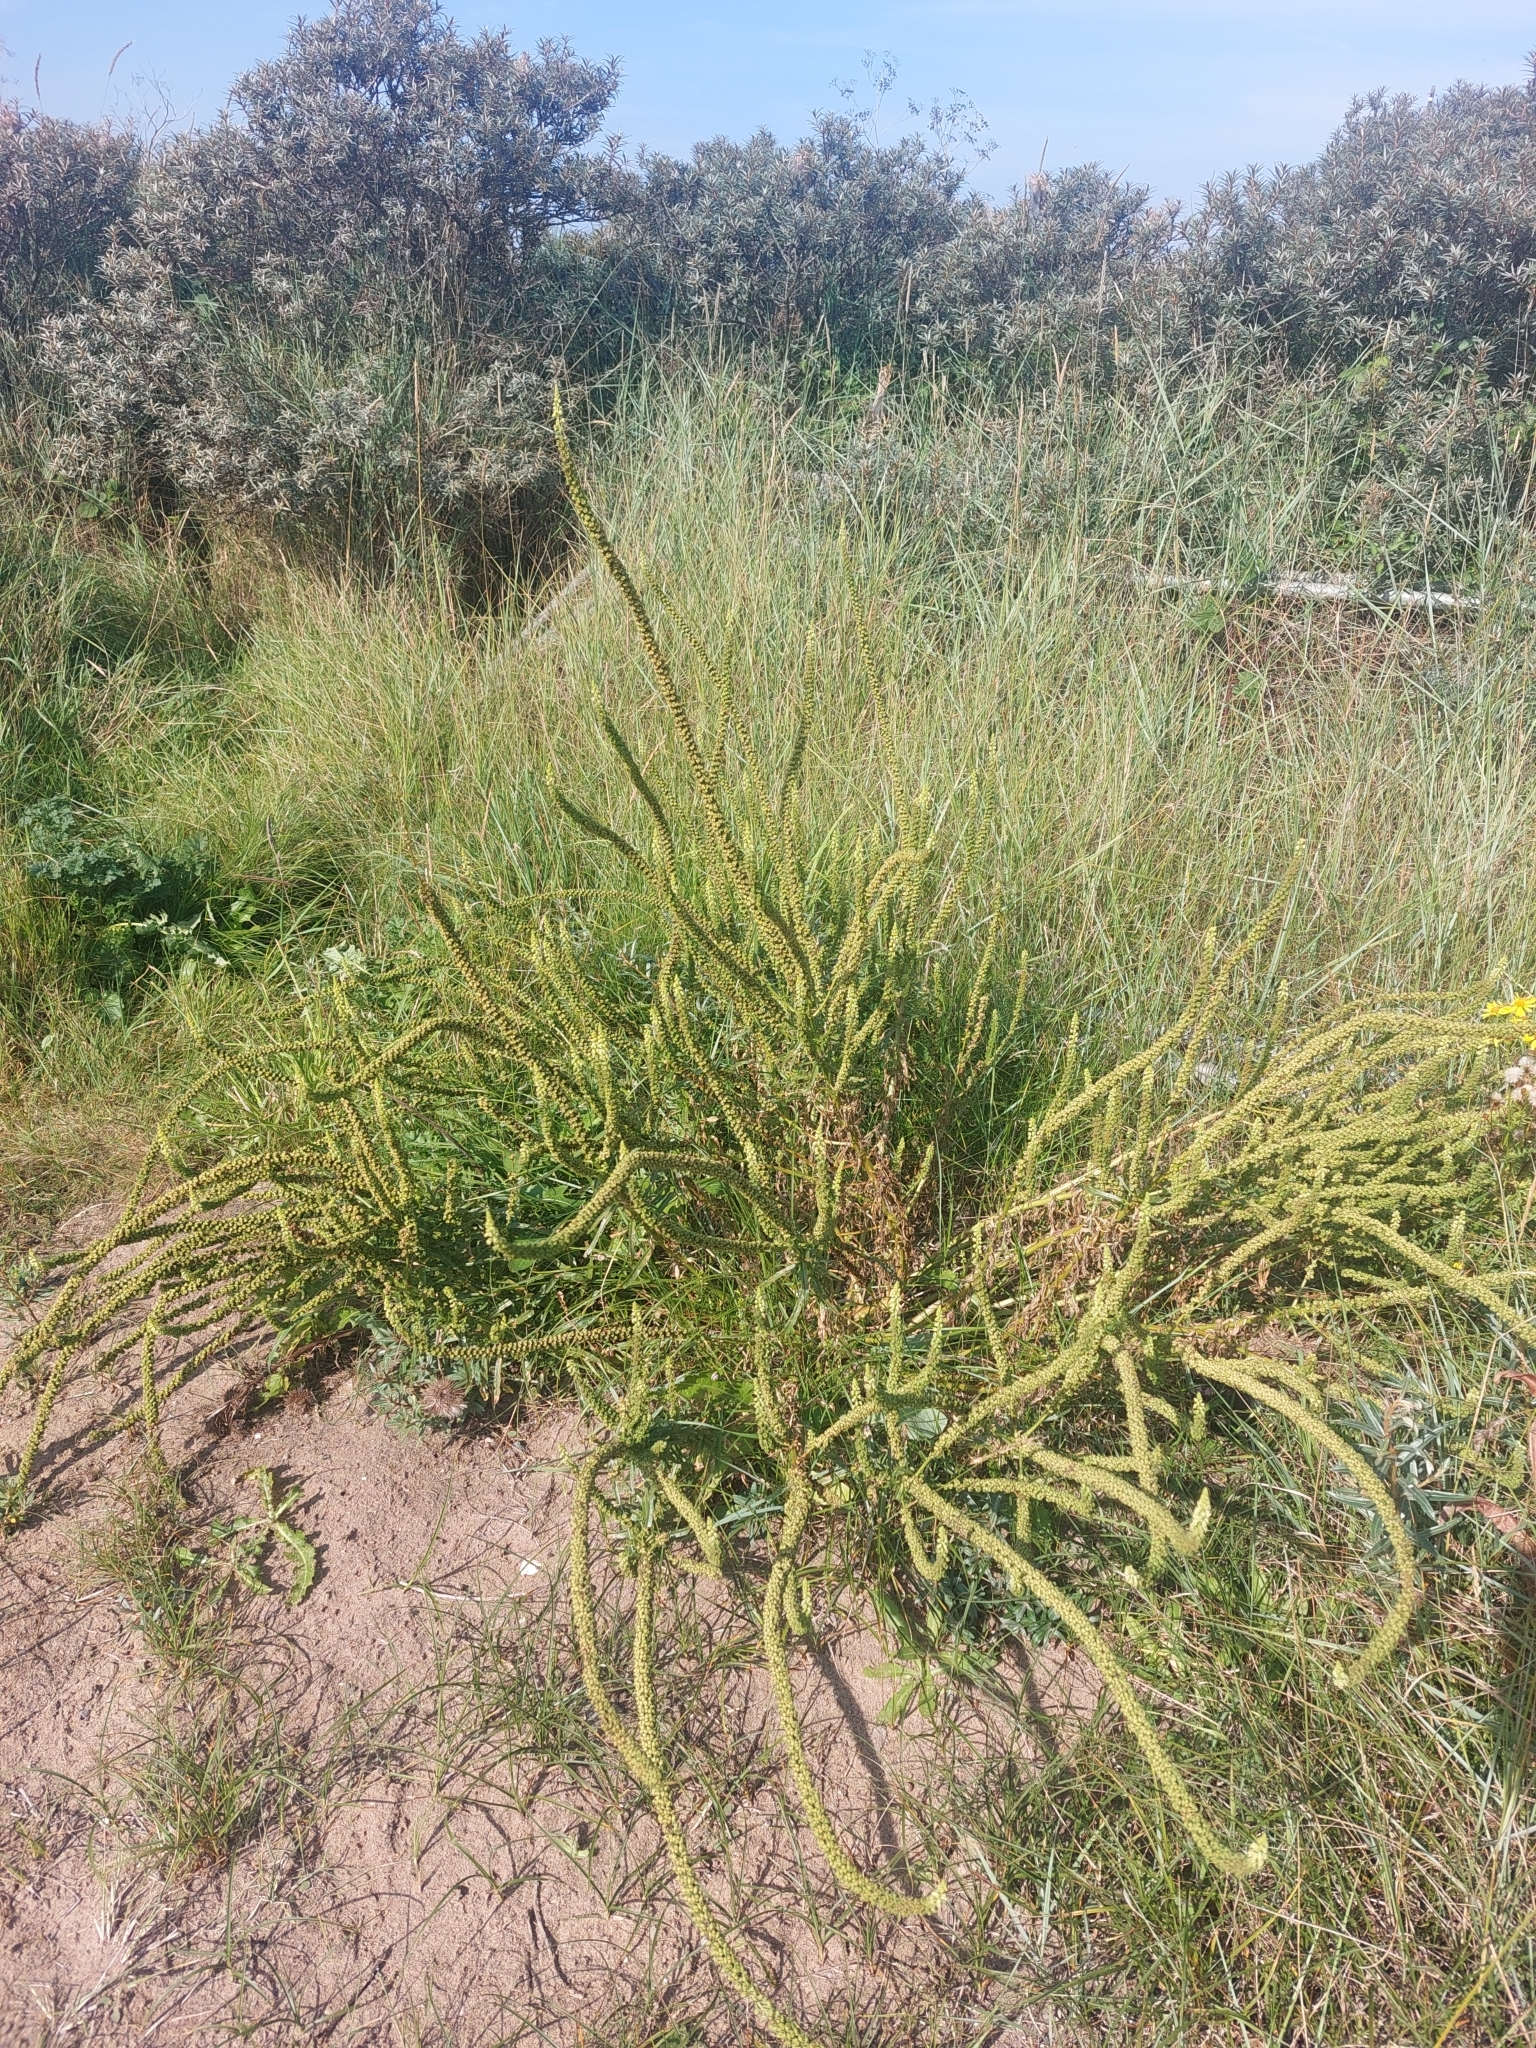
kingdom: Plantae
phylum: Tracheophyta
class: Magnoliopsida
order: Brassicales
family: Resedaceae
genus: Reseda
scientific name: Reseda luteola
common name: Weld
